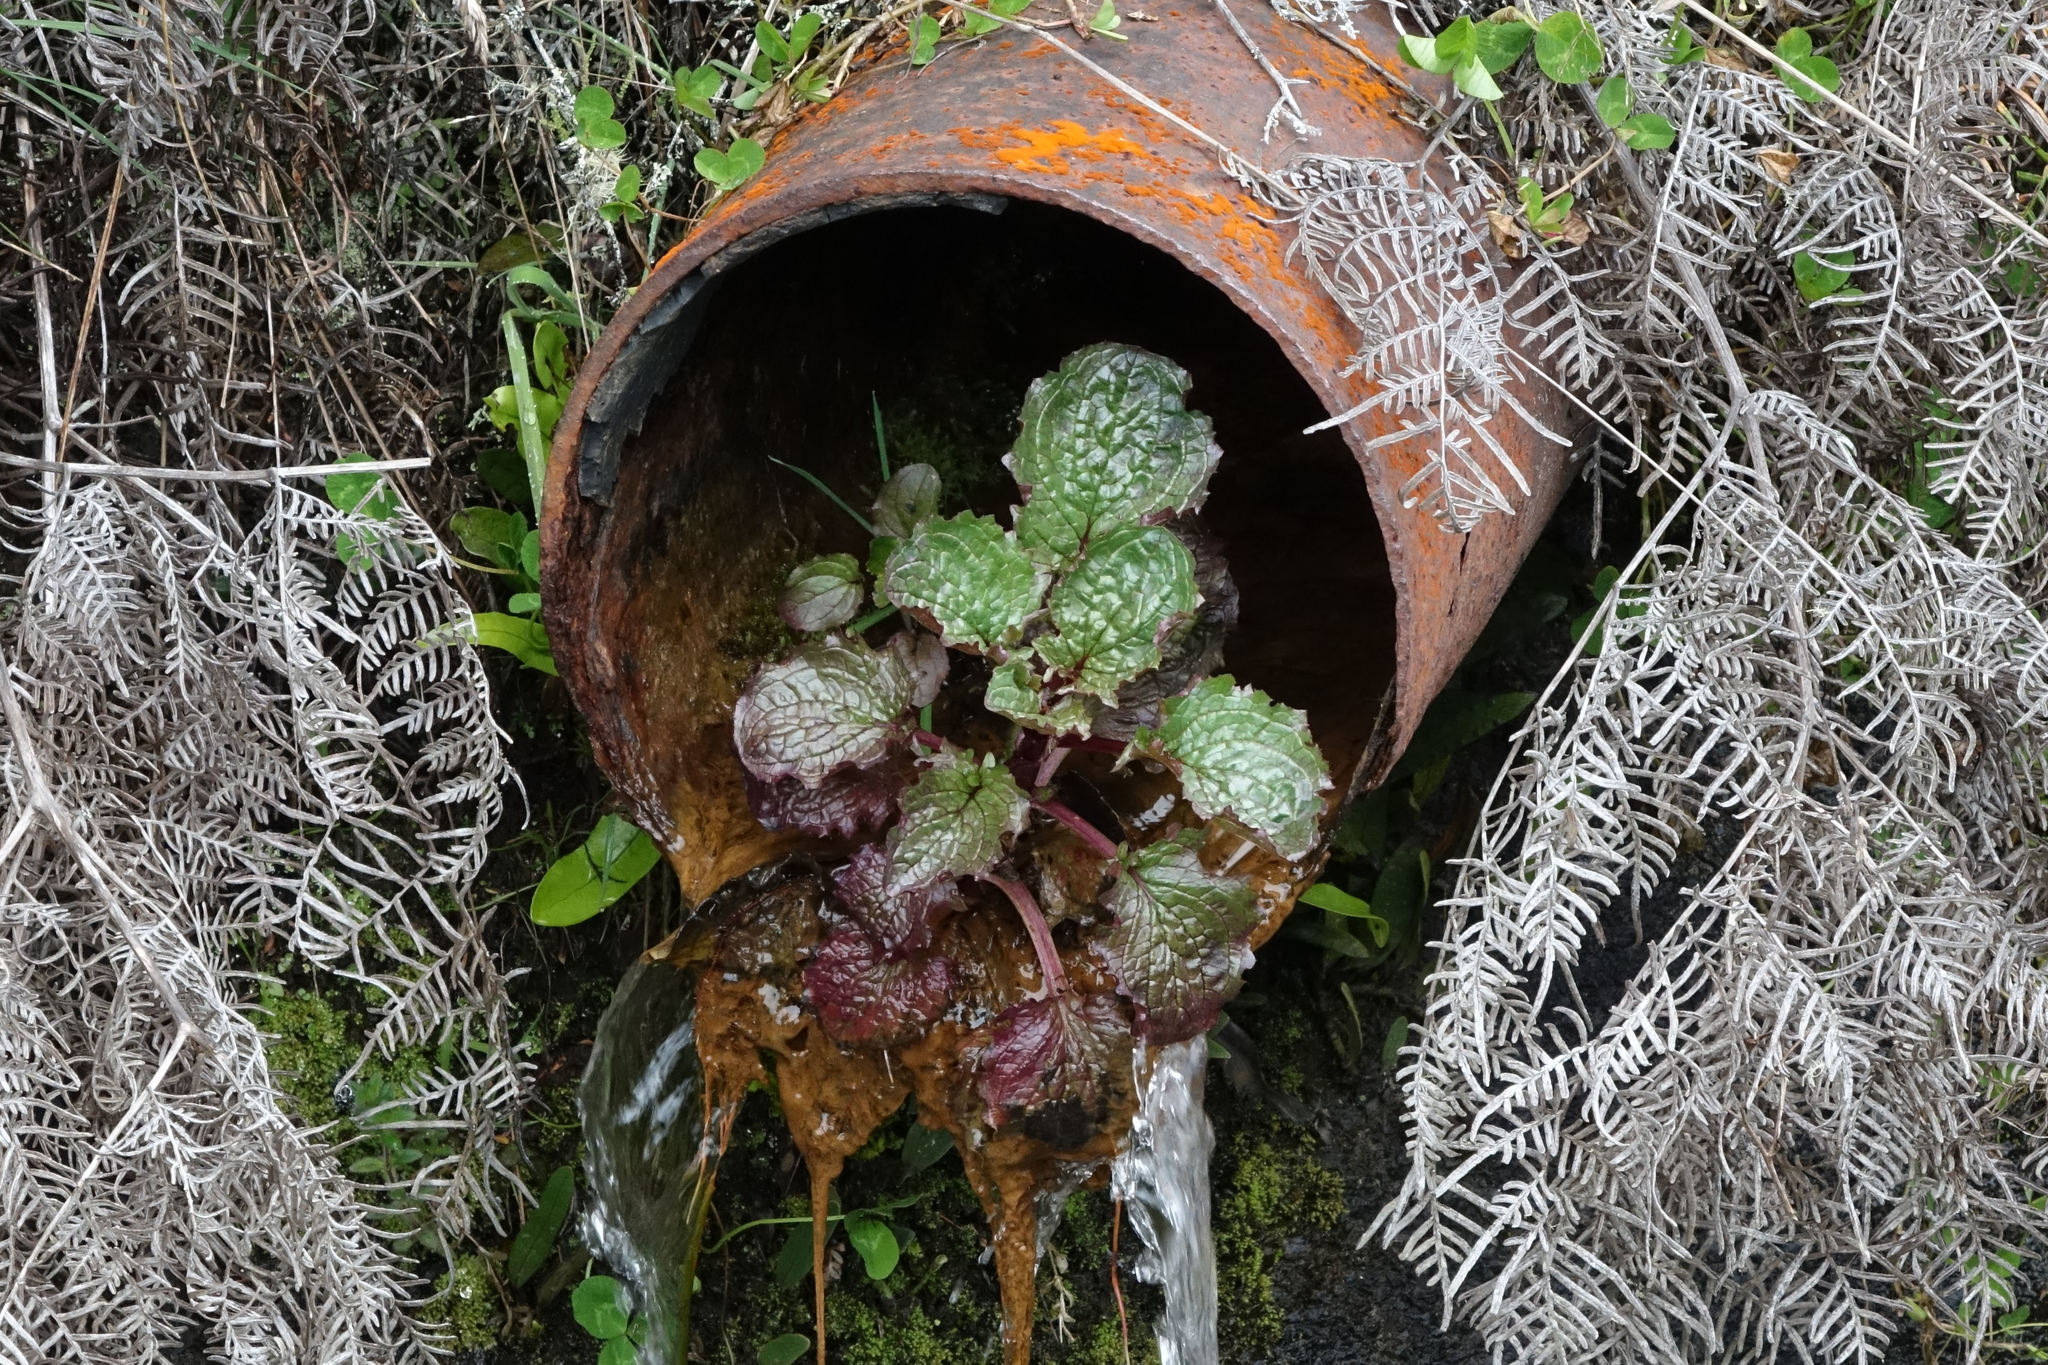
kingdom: Plantae
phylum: Tracheophyta
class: Magnoliopsida
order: Lamiales
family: Phrymaceae
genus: Erythranthe
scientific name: Erythranthe guttata
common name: Monkeyflower
